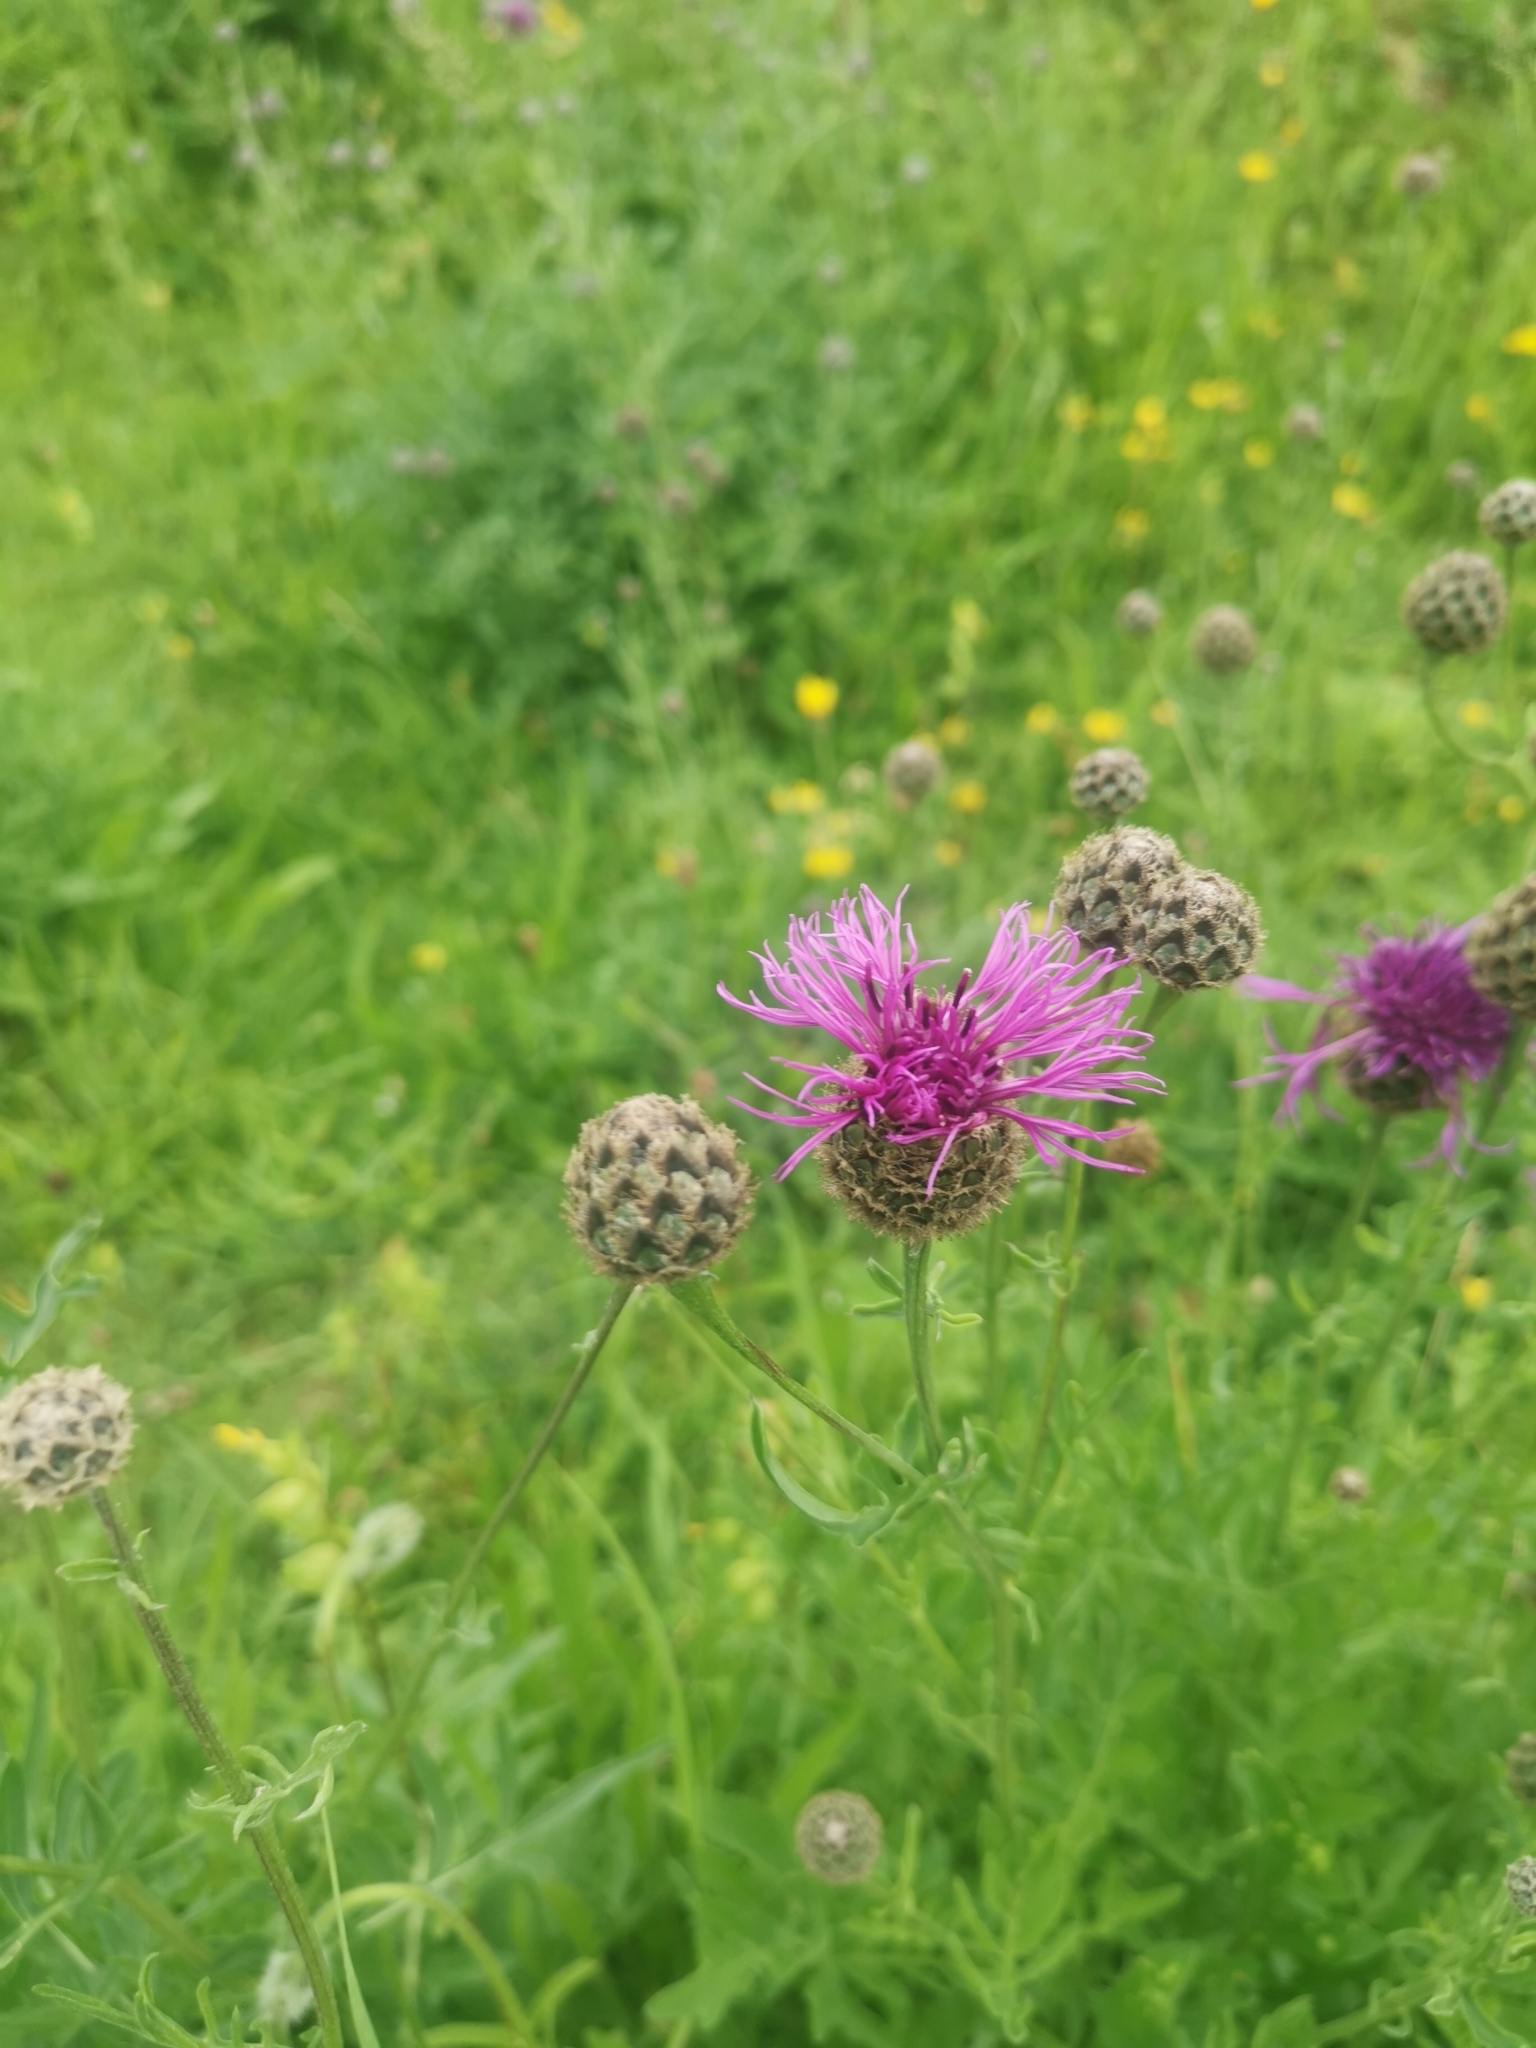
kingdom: Plantae
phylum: Tracheophyta
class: Magnoliopsida
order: Asterales
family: Asteraceae
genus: Centaurea
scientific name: Centaurea scabiosa
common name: Greater knapweed
